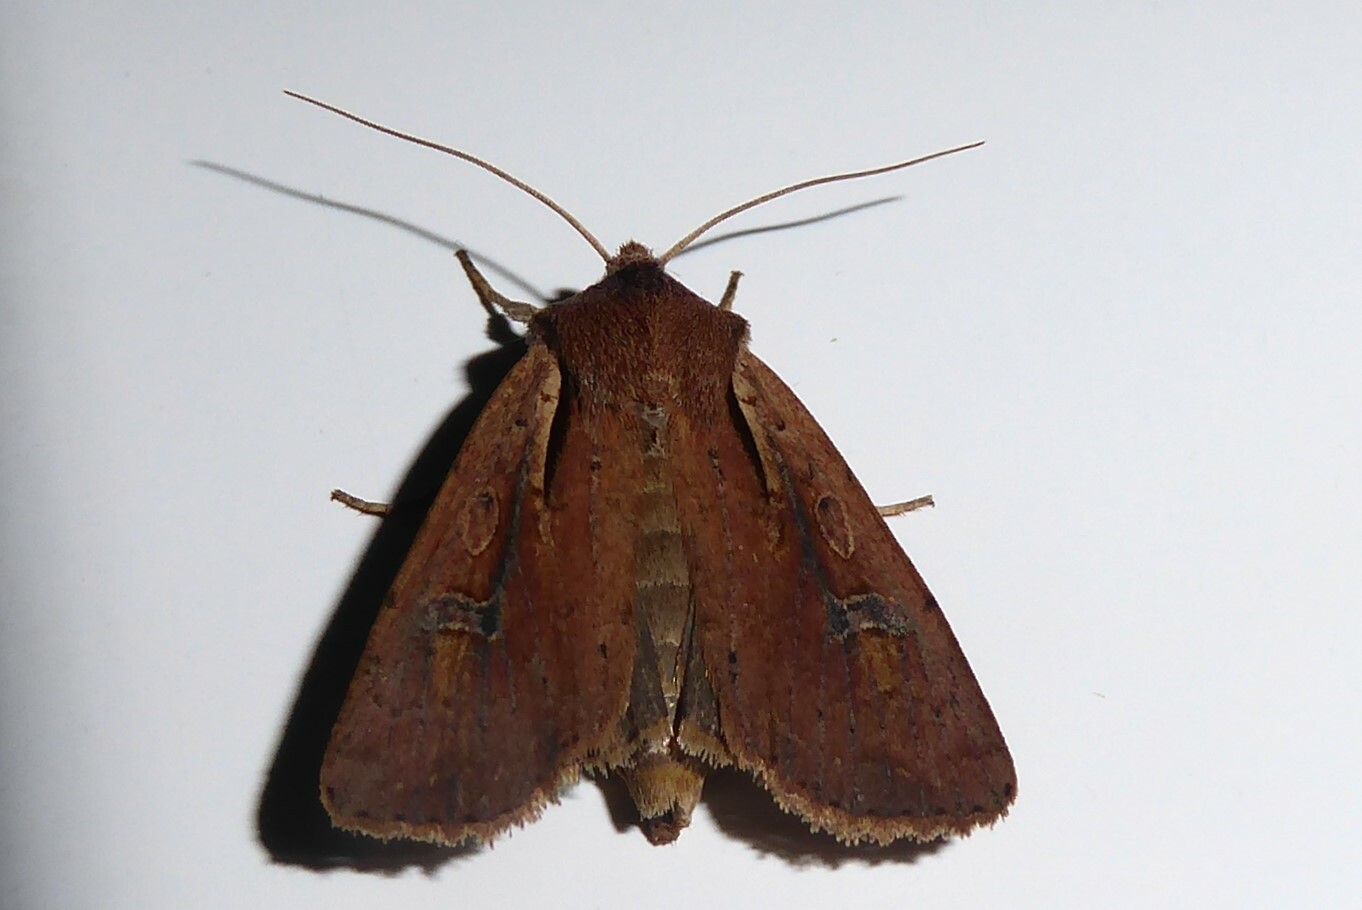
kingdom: Animalia
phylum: Arthropoda
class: Insecta
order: Lepidoptera
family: Noctuidae
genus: Ichneutica
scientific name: Ichneutica atristriga
